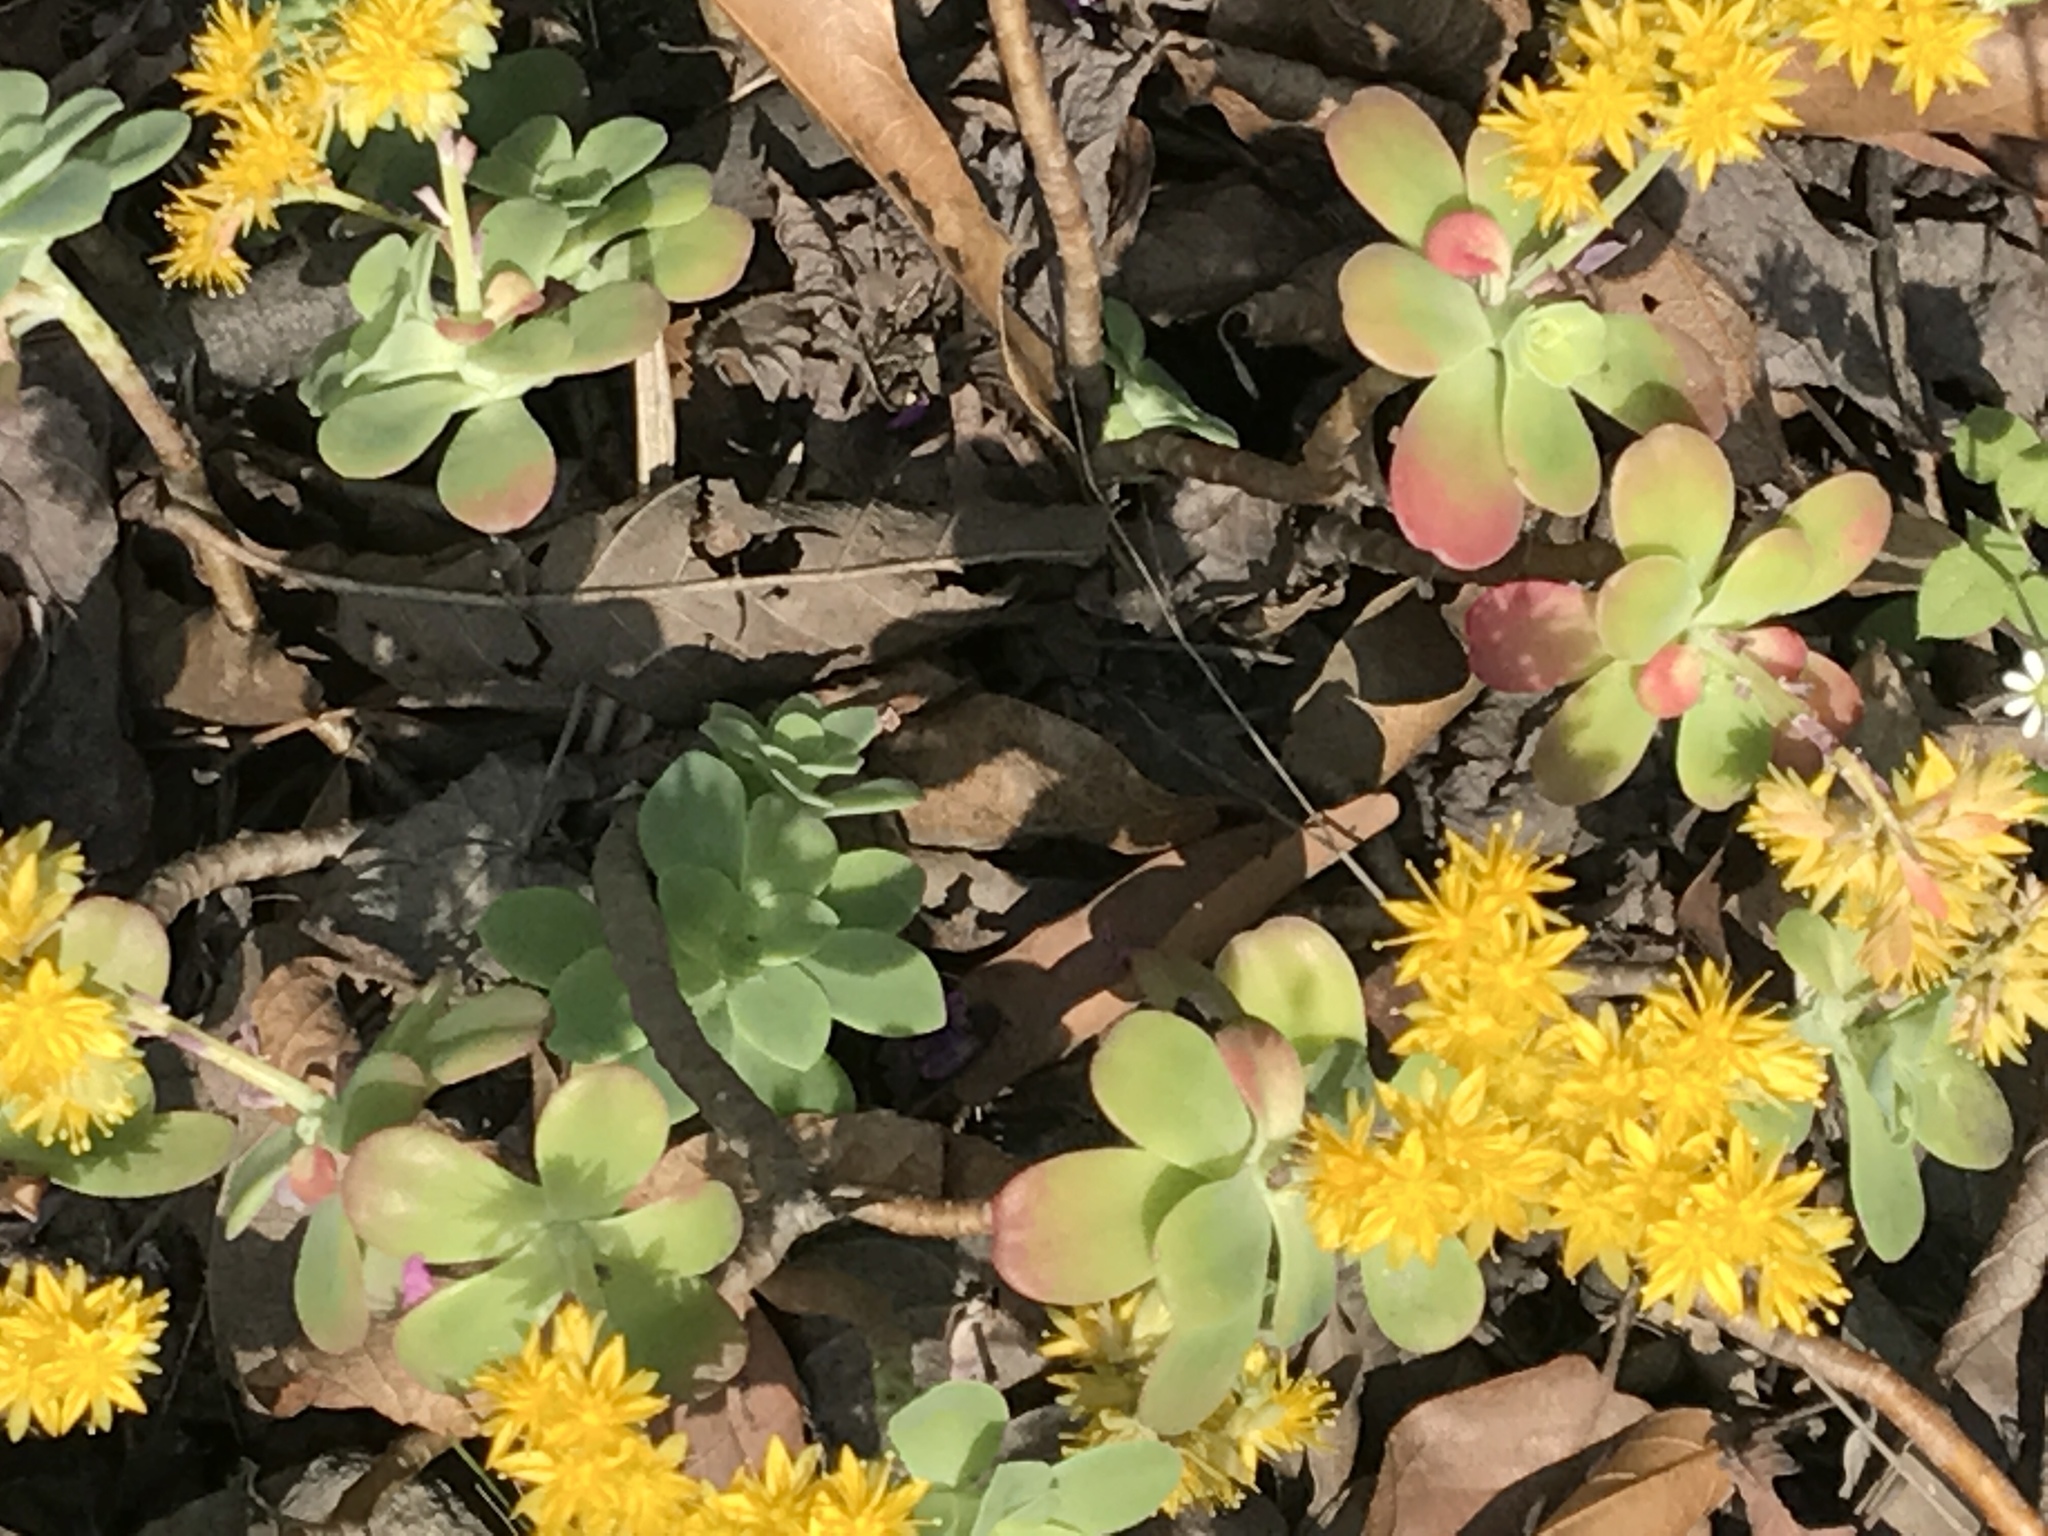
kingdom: Plantae
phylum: Tracheophyta
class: Magnoliopsida
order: Saxifragales
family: Crassulaceae
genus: Sedum
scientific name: Sedum palmeri
